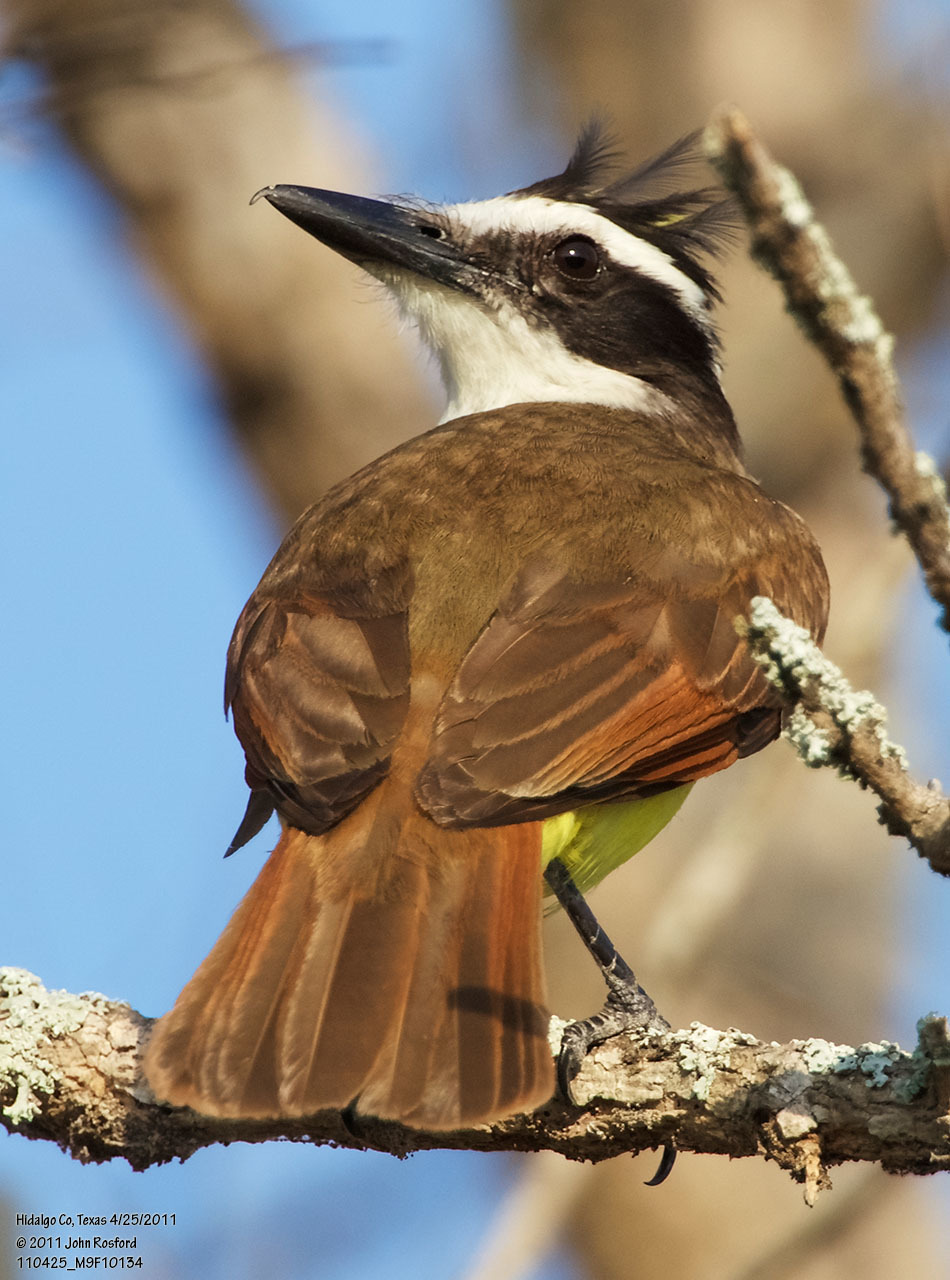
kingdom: Animalia
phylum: Chordata
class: Aves
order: Passeriformes
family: Tyrannidae
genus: Pitangus
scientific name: Pitangus sulphuratus
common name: Great kiskadee
